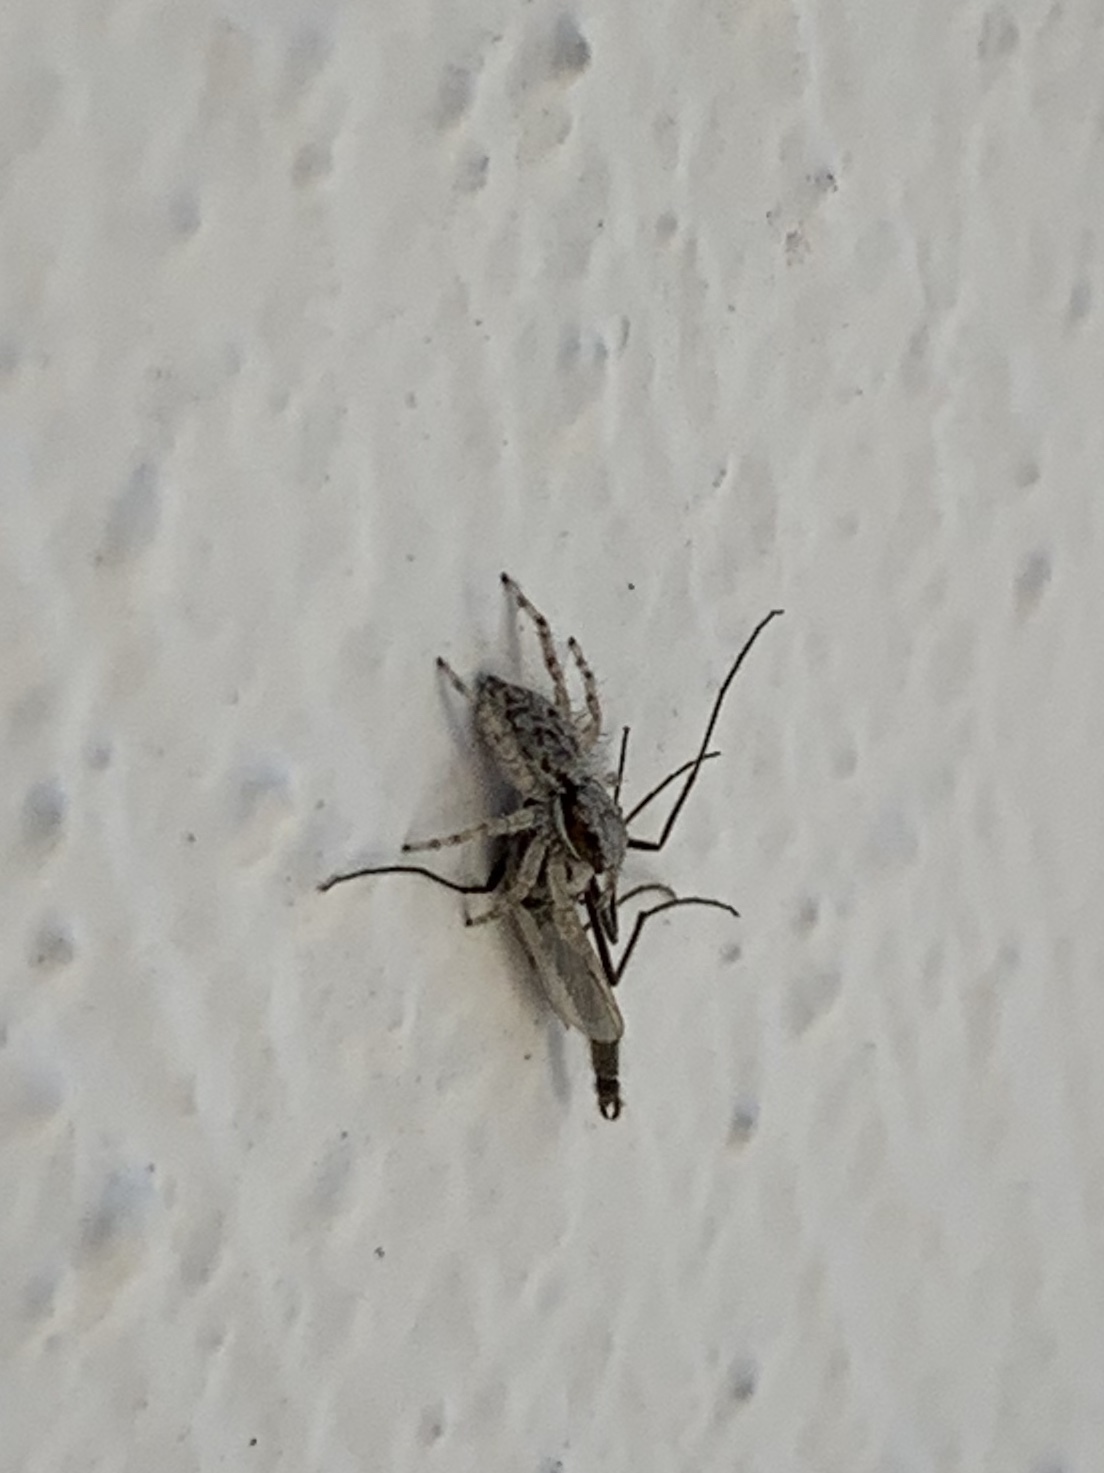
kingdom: Animalia
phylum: Arthropoda
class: Arachnida
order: Araneae
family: Salticidae
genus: Menemerus
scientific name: Menemerus bivittatus
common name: Gray wall jumper
